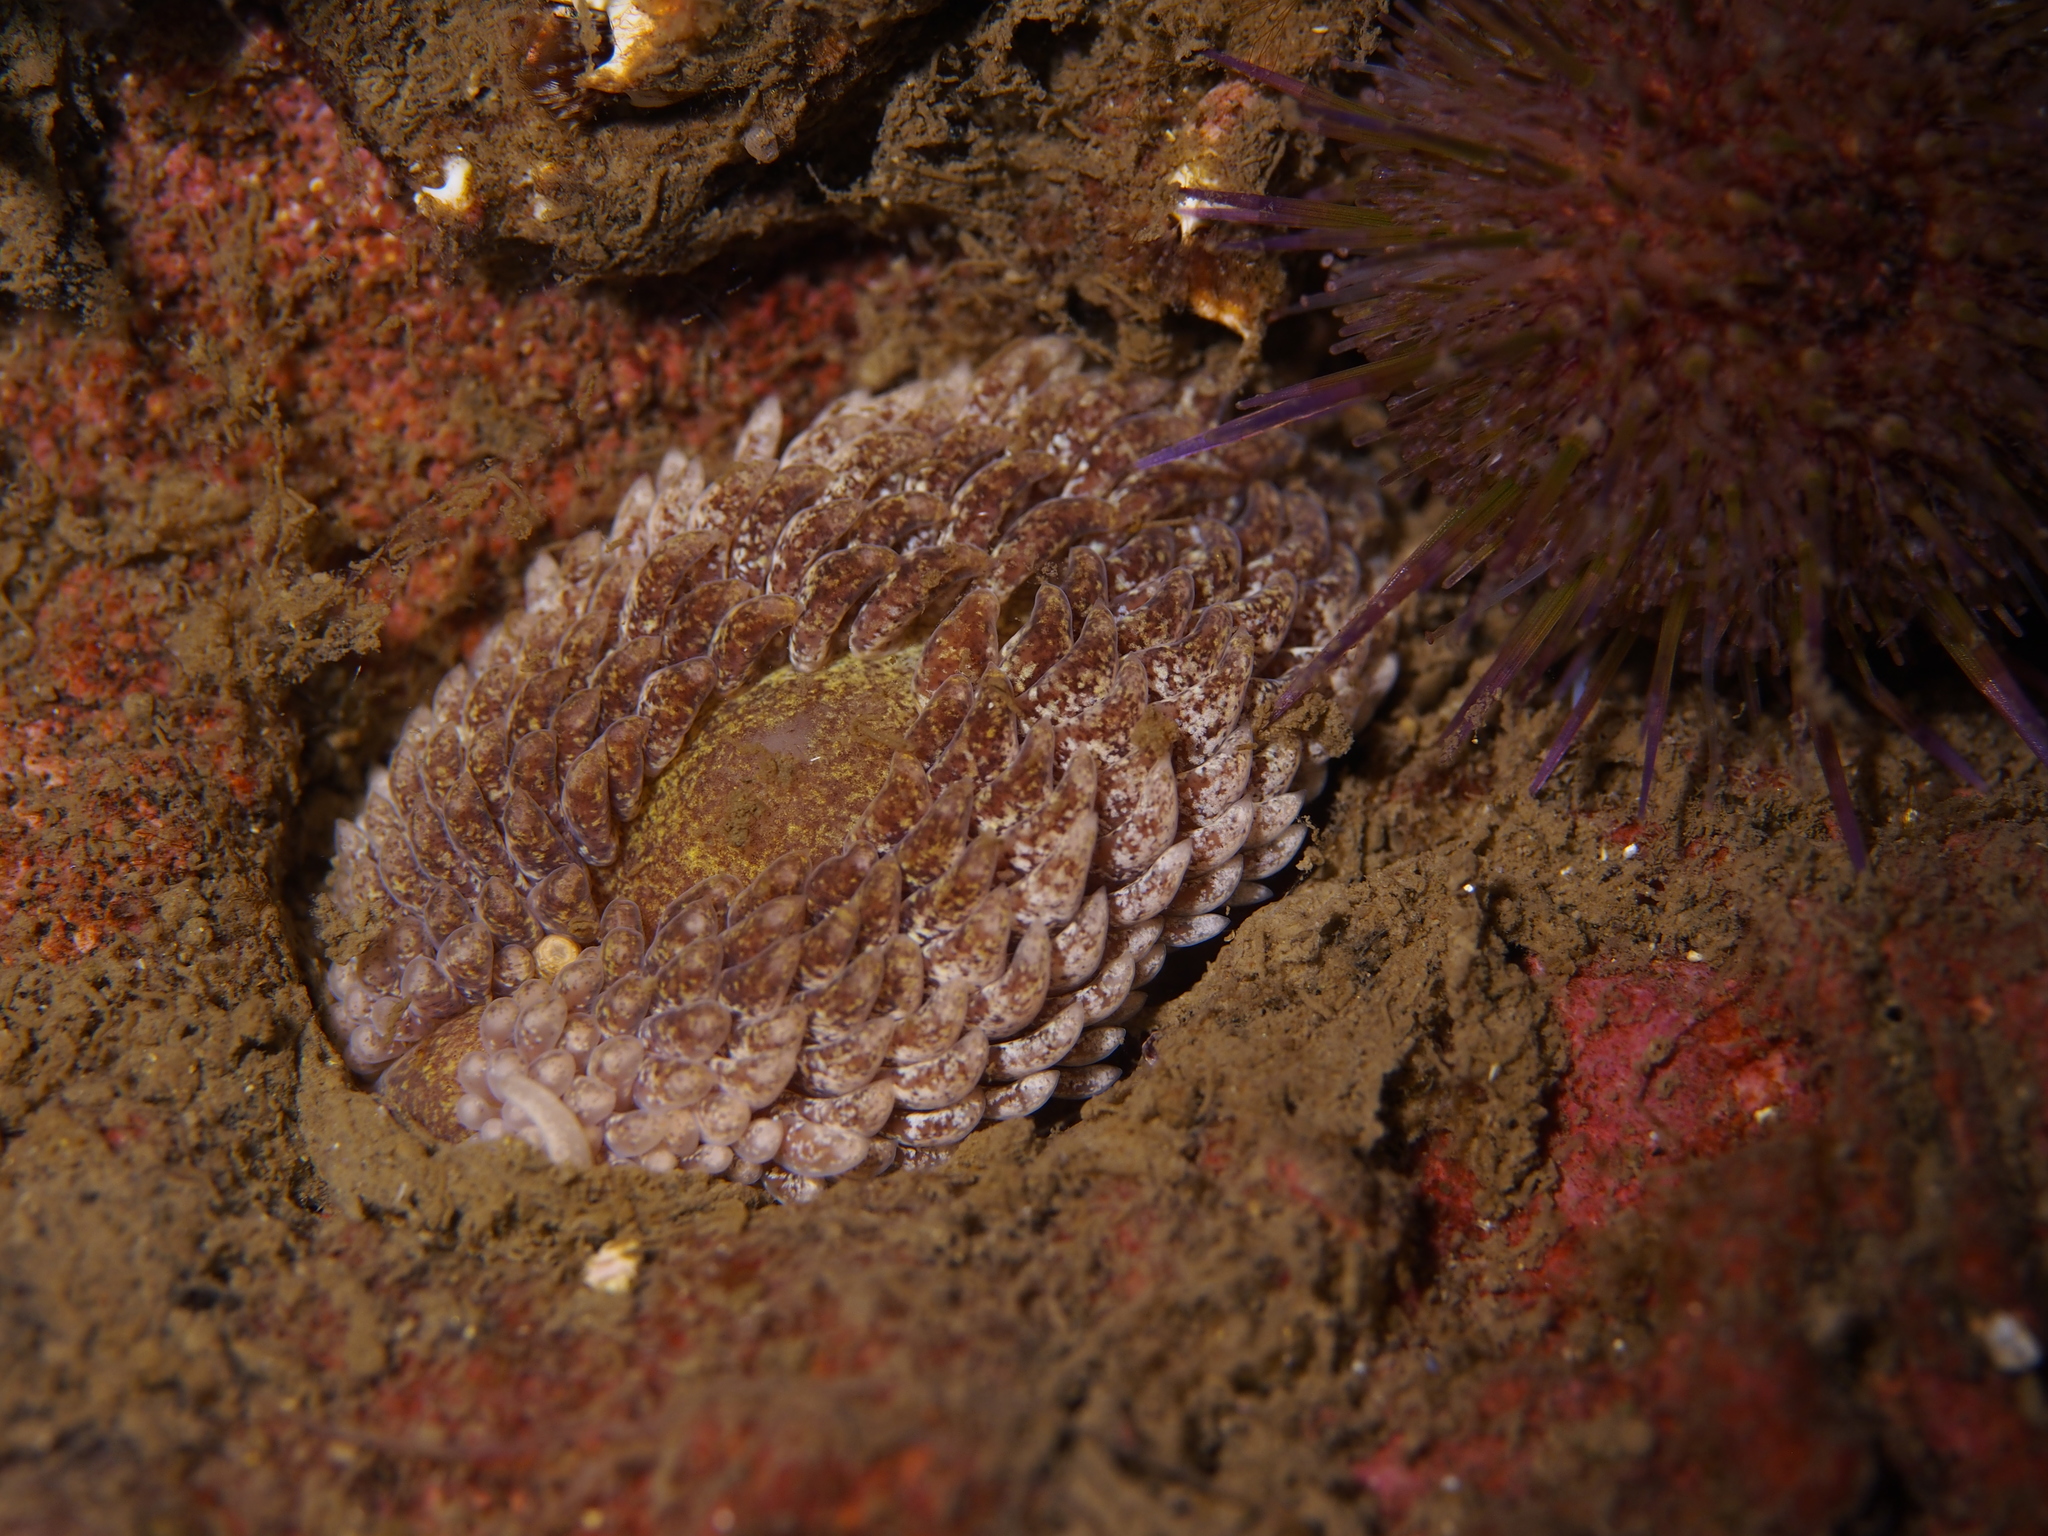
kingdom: Animalia
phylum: Mollusca
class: Gastropoda
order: Nudibranchia
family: Aeolidiidae
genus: Aeolidia
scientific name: Aeolidia papillosa
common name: Common grey sea slug
